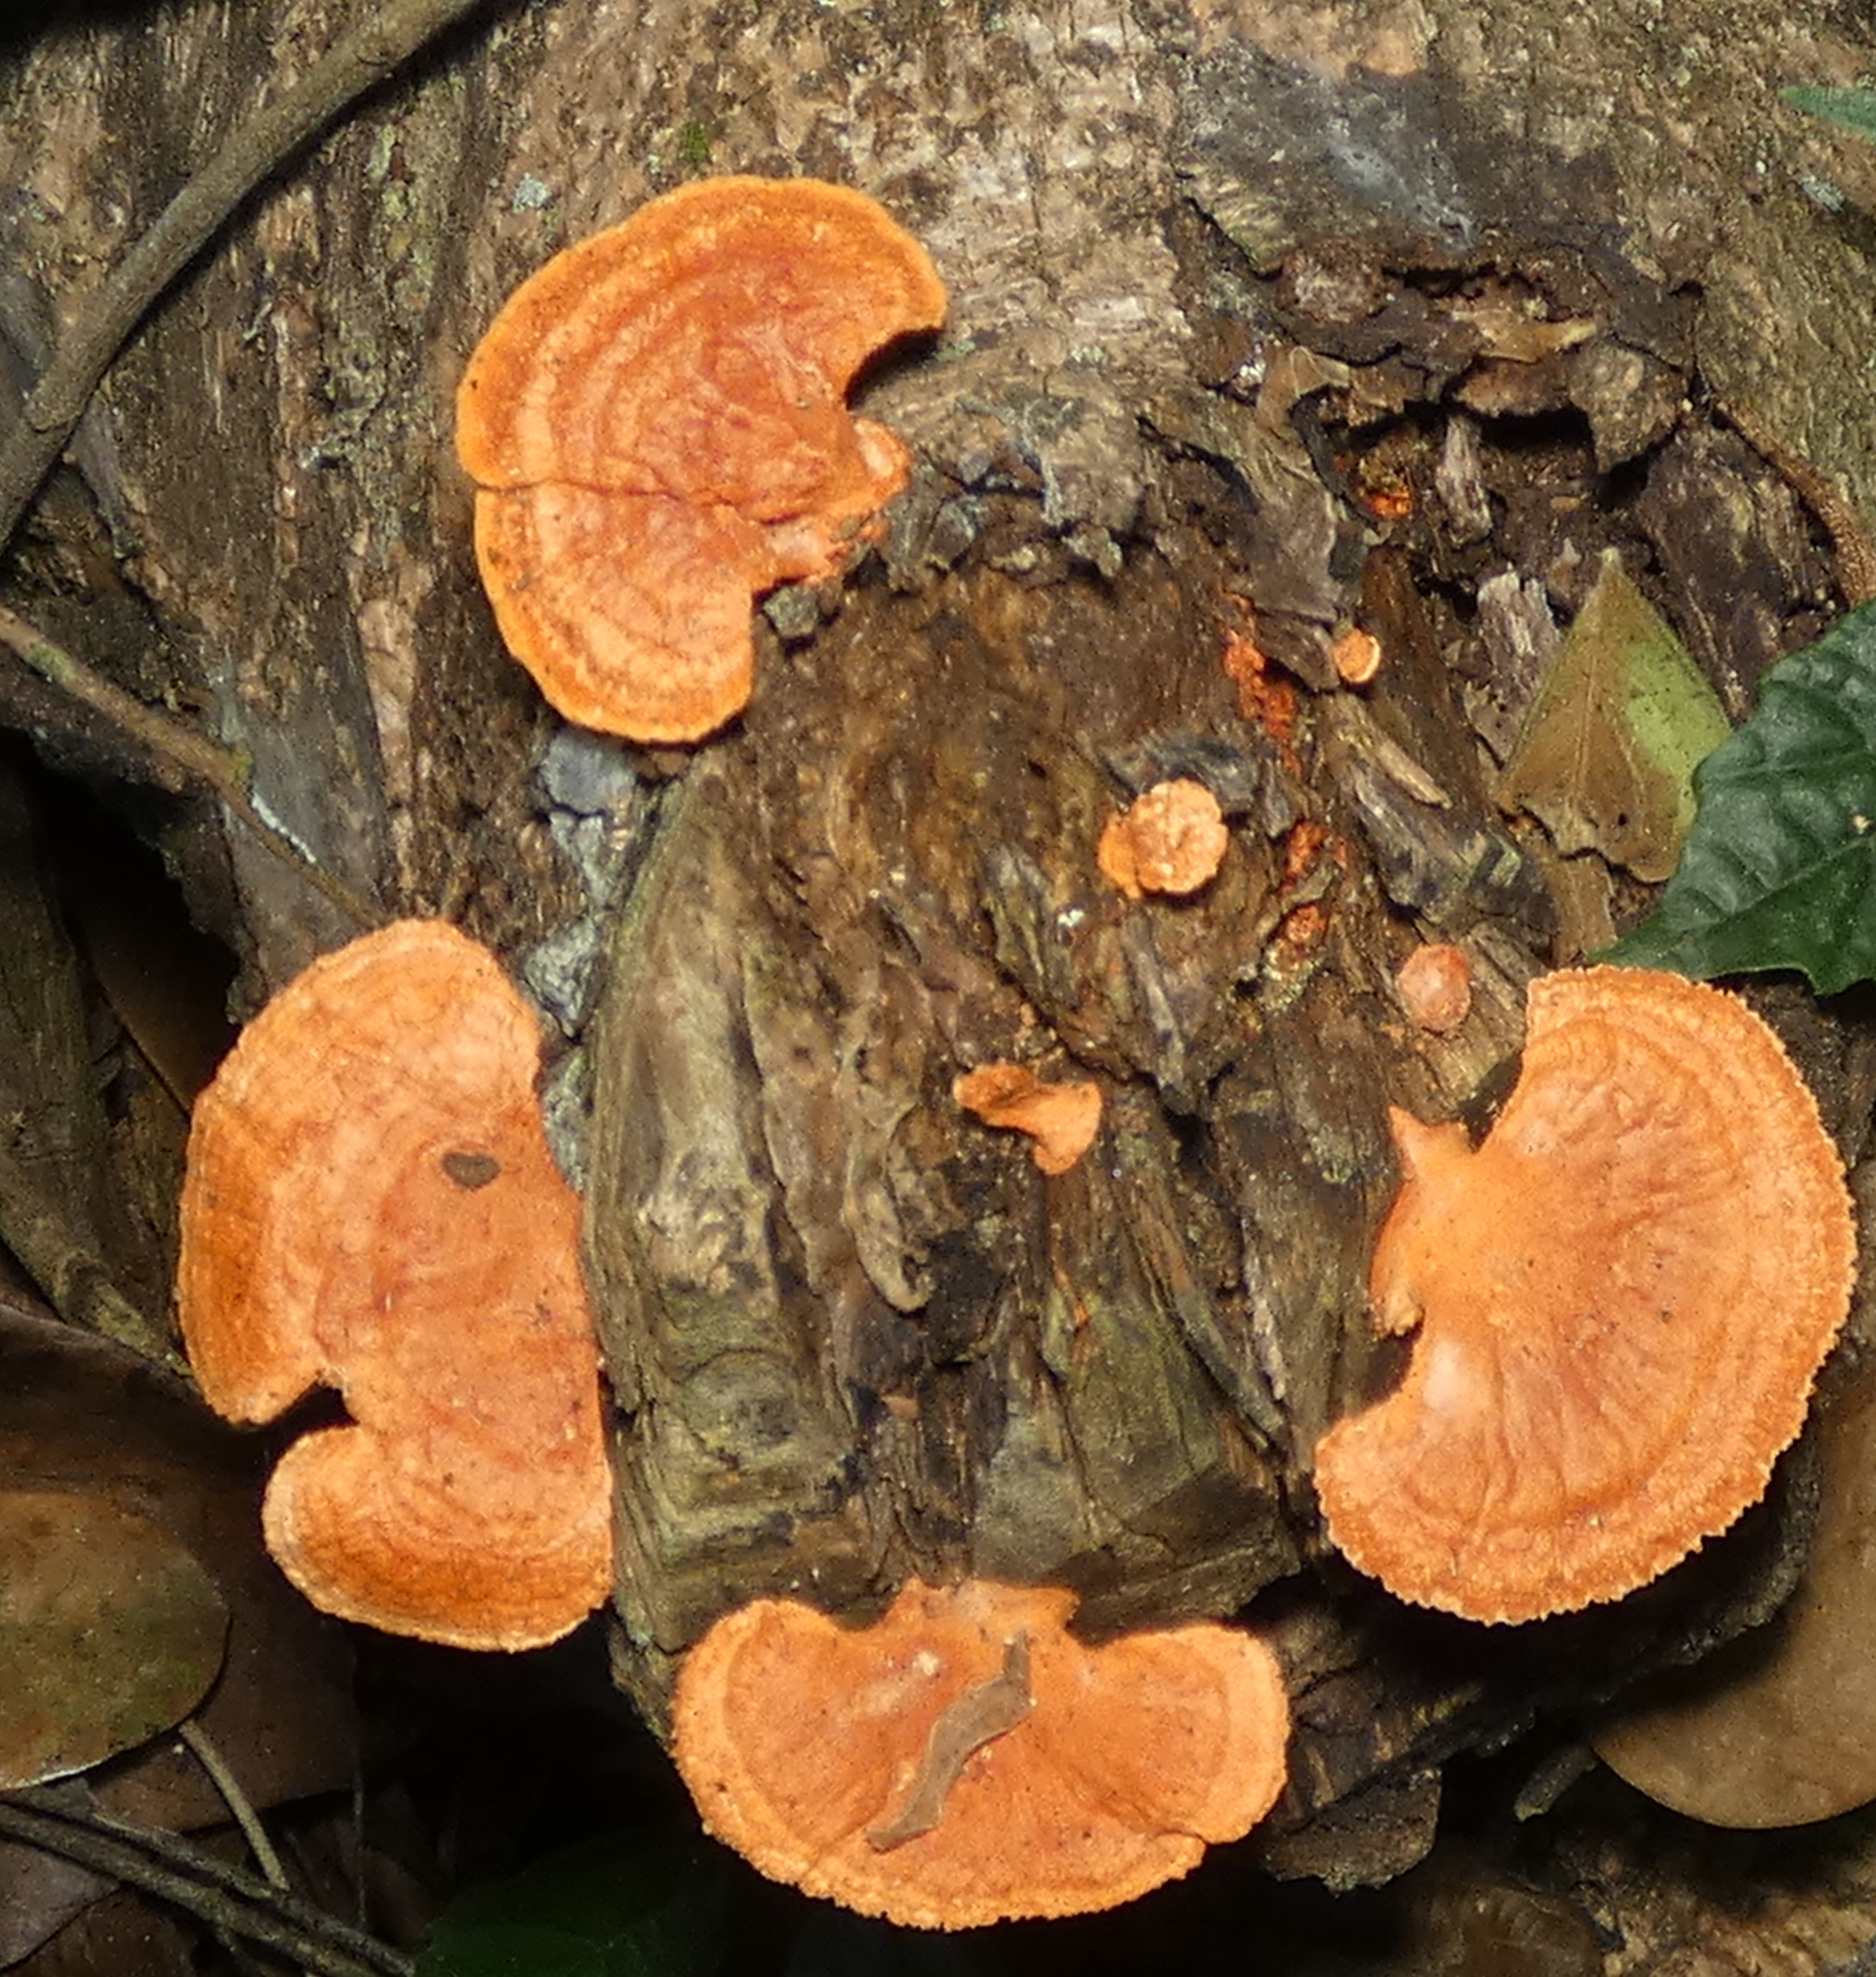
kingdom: Fungi
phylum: Basidiomycota
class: Agaricomycetes
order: Polyporales
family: Polyporaceae
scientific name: Polyporaceae
